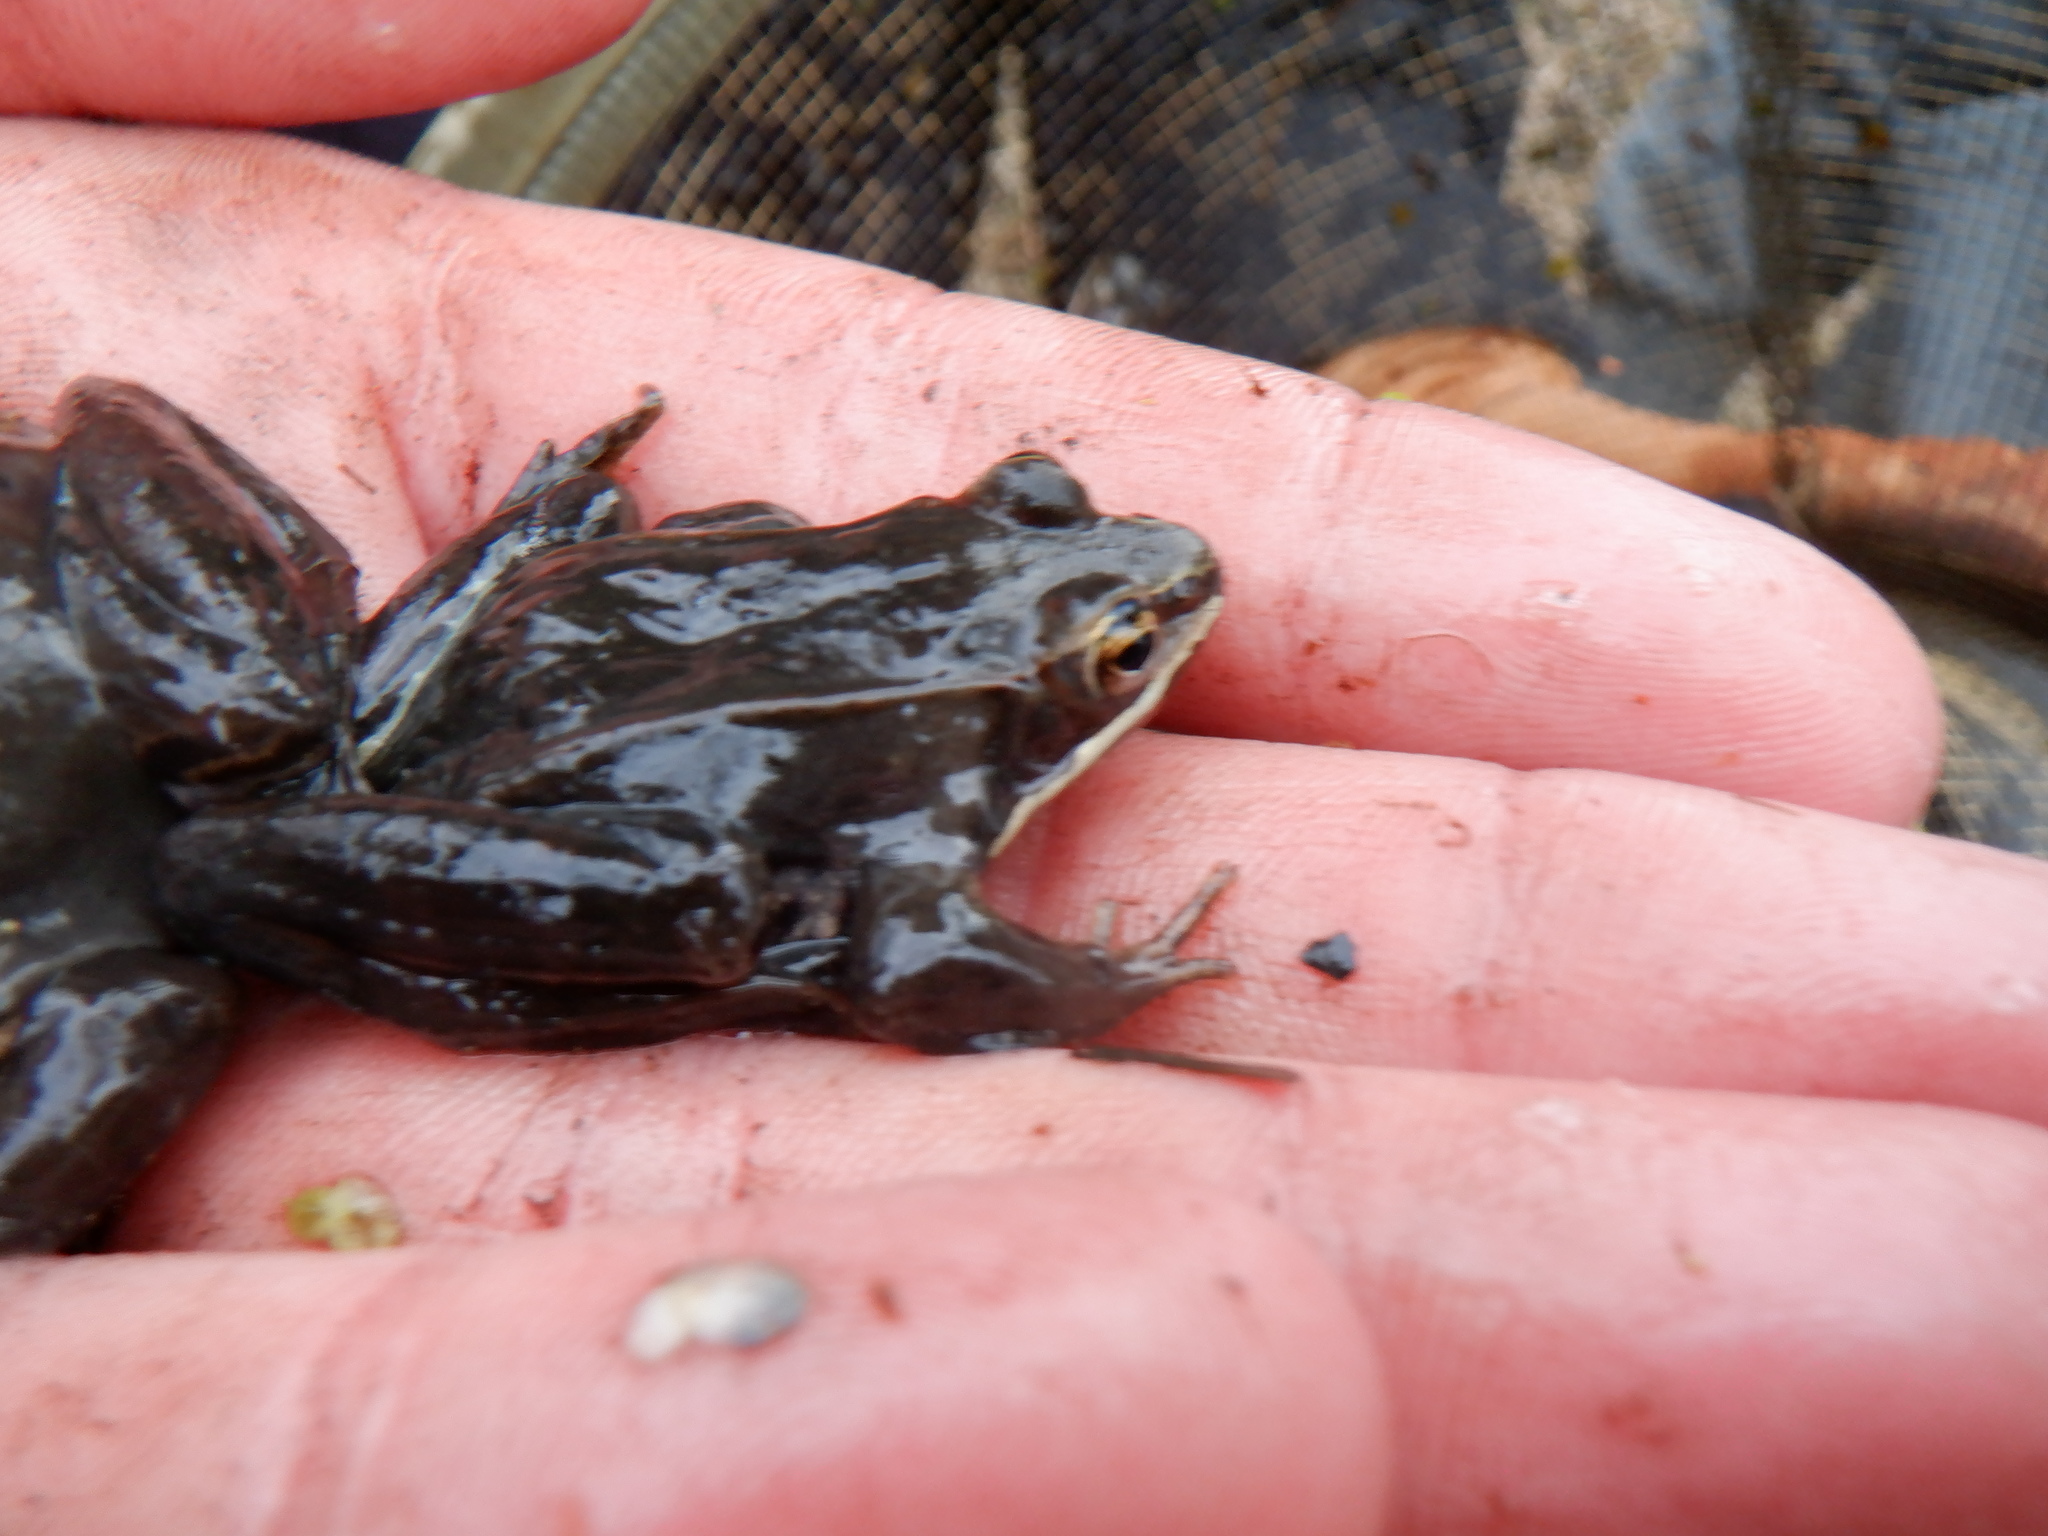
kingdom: Animalia
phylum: Chordata
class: Amphibia
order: Anura
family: Ranidae
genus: Lithobates
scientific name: Lithobates sylvaticus
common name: Wood frog
